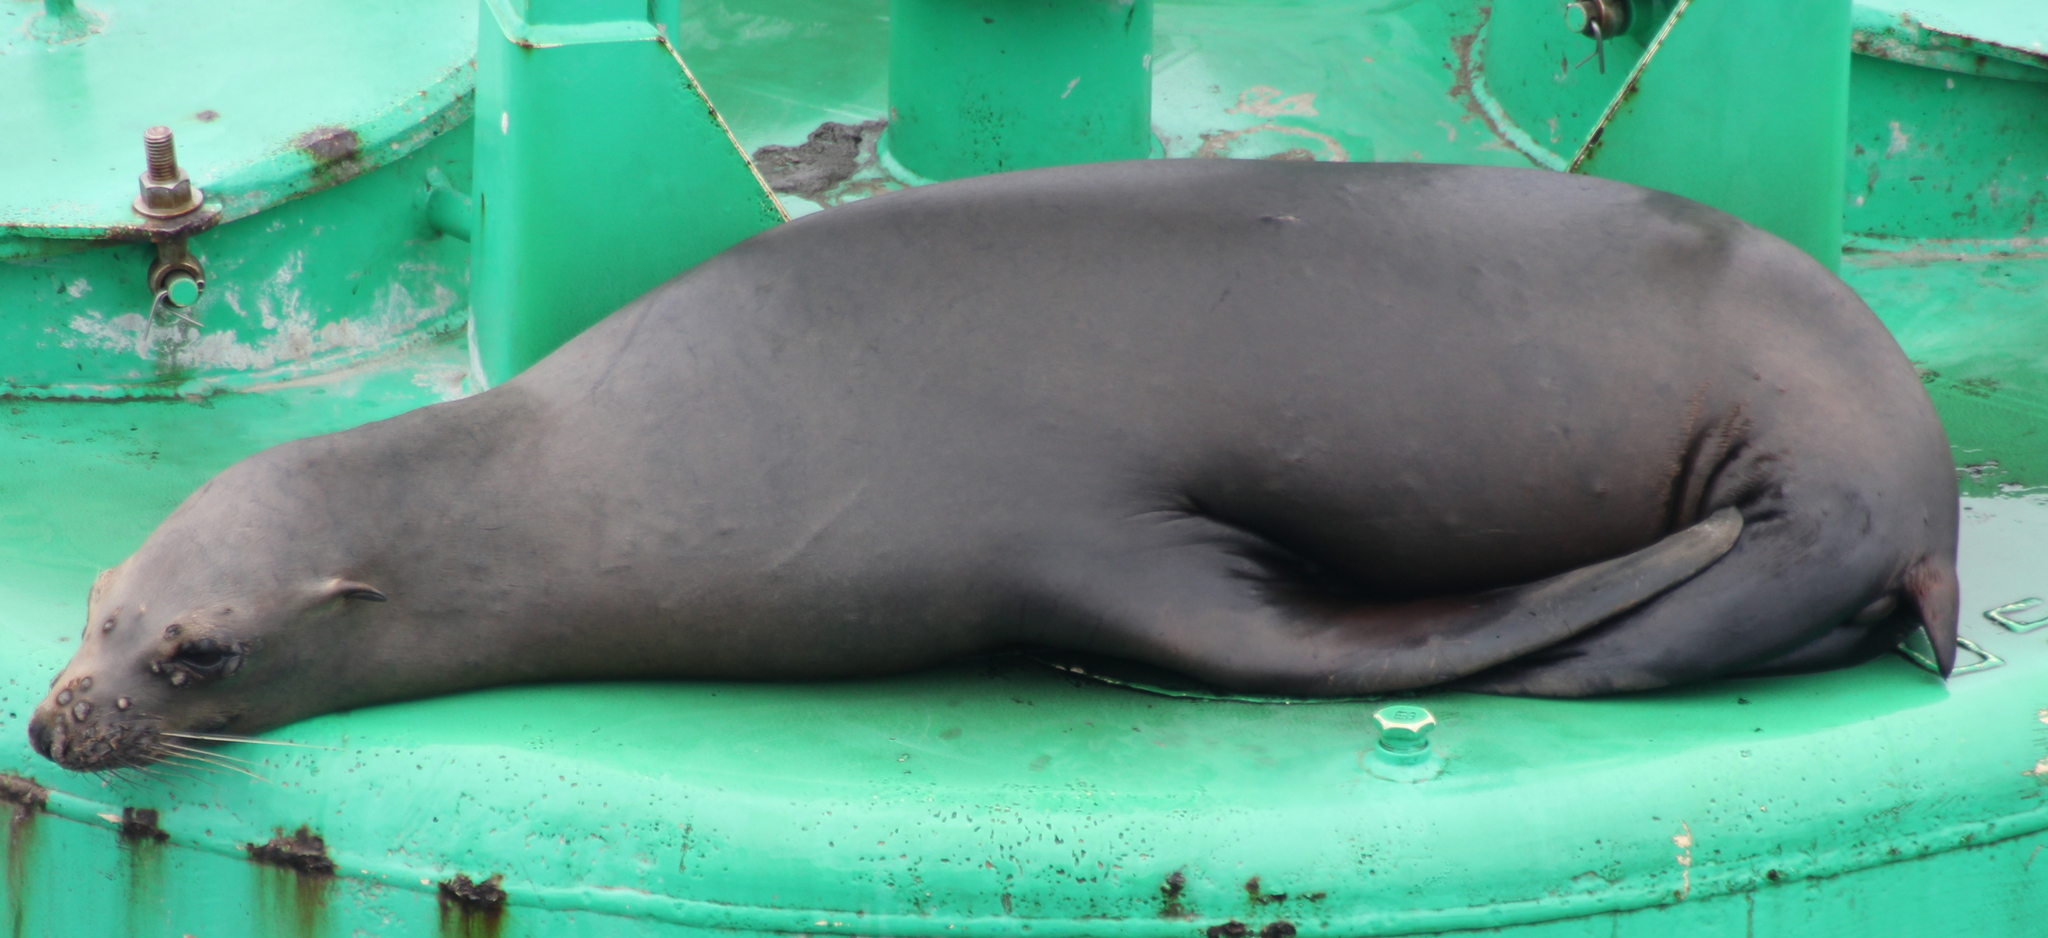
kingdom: Animalia
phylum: Chordata
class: Mammalia
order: Carnivora
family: Otariidae
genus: Zalophus
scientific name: Zalophus californianus
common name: California sea lion
